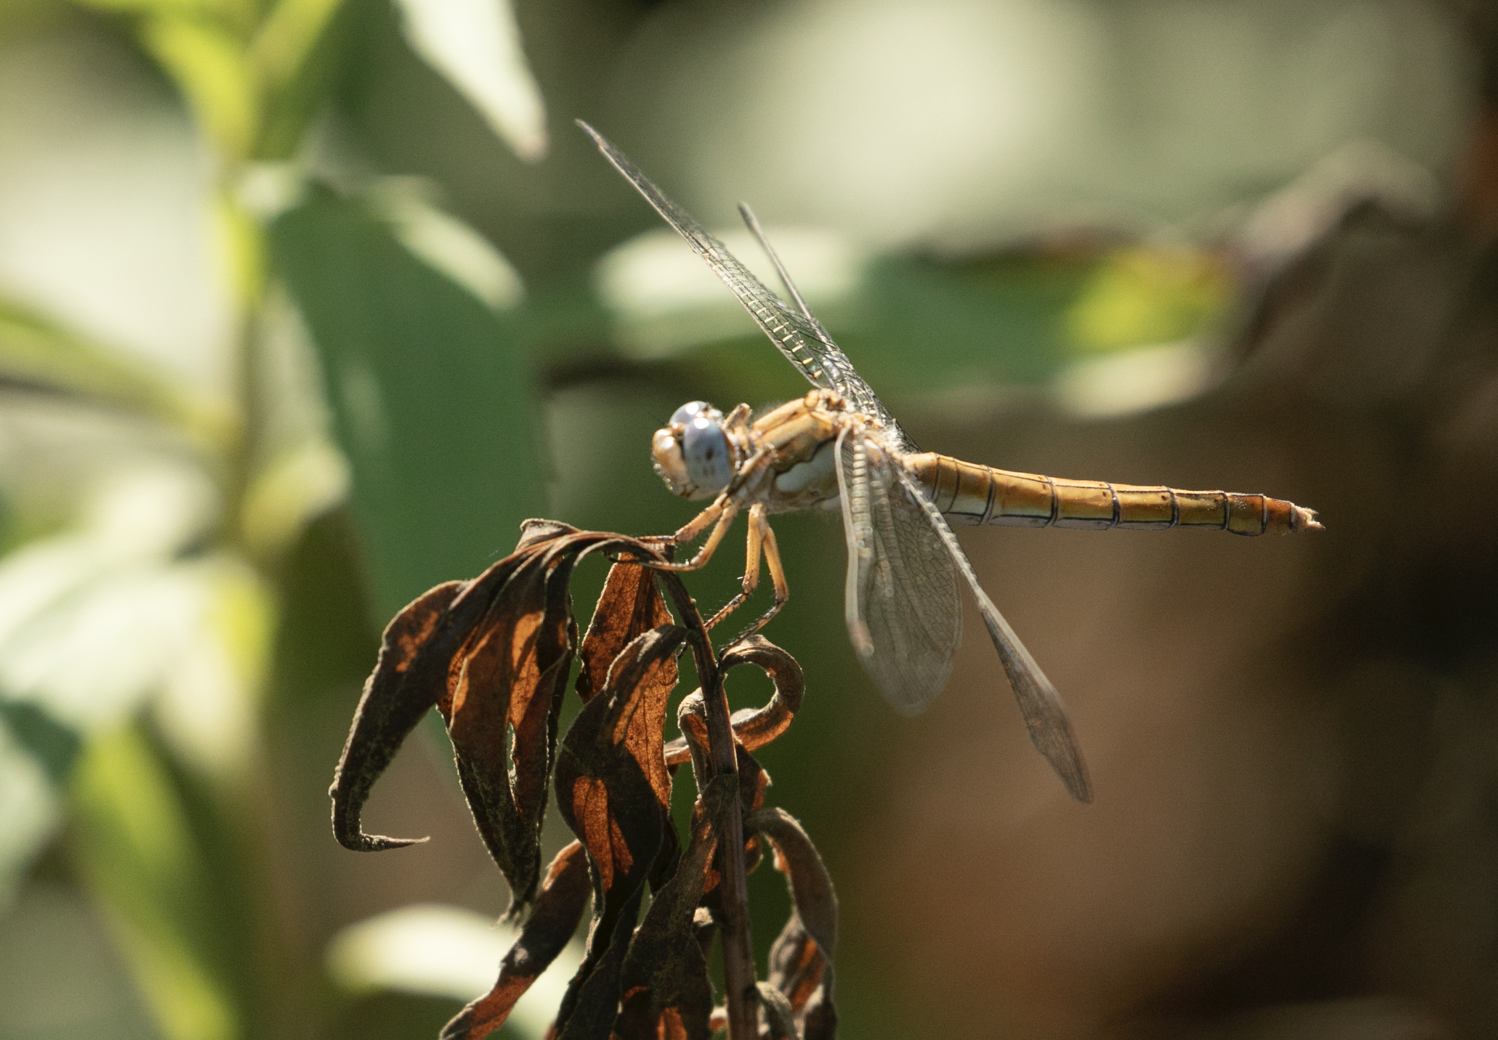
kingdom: Animalia
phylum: Arthropoda
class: Insecta
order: Odonata
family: Libellulidae
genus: Orthetrum
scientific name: Orthetrum brunneum
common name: Southern skimmer
